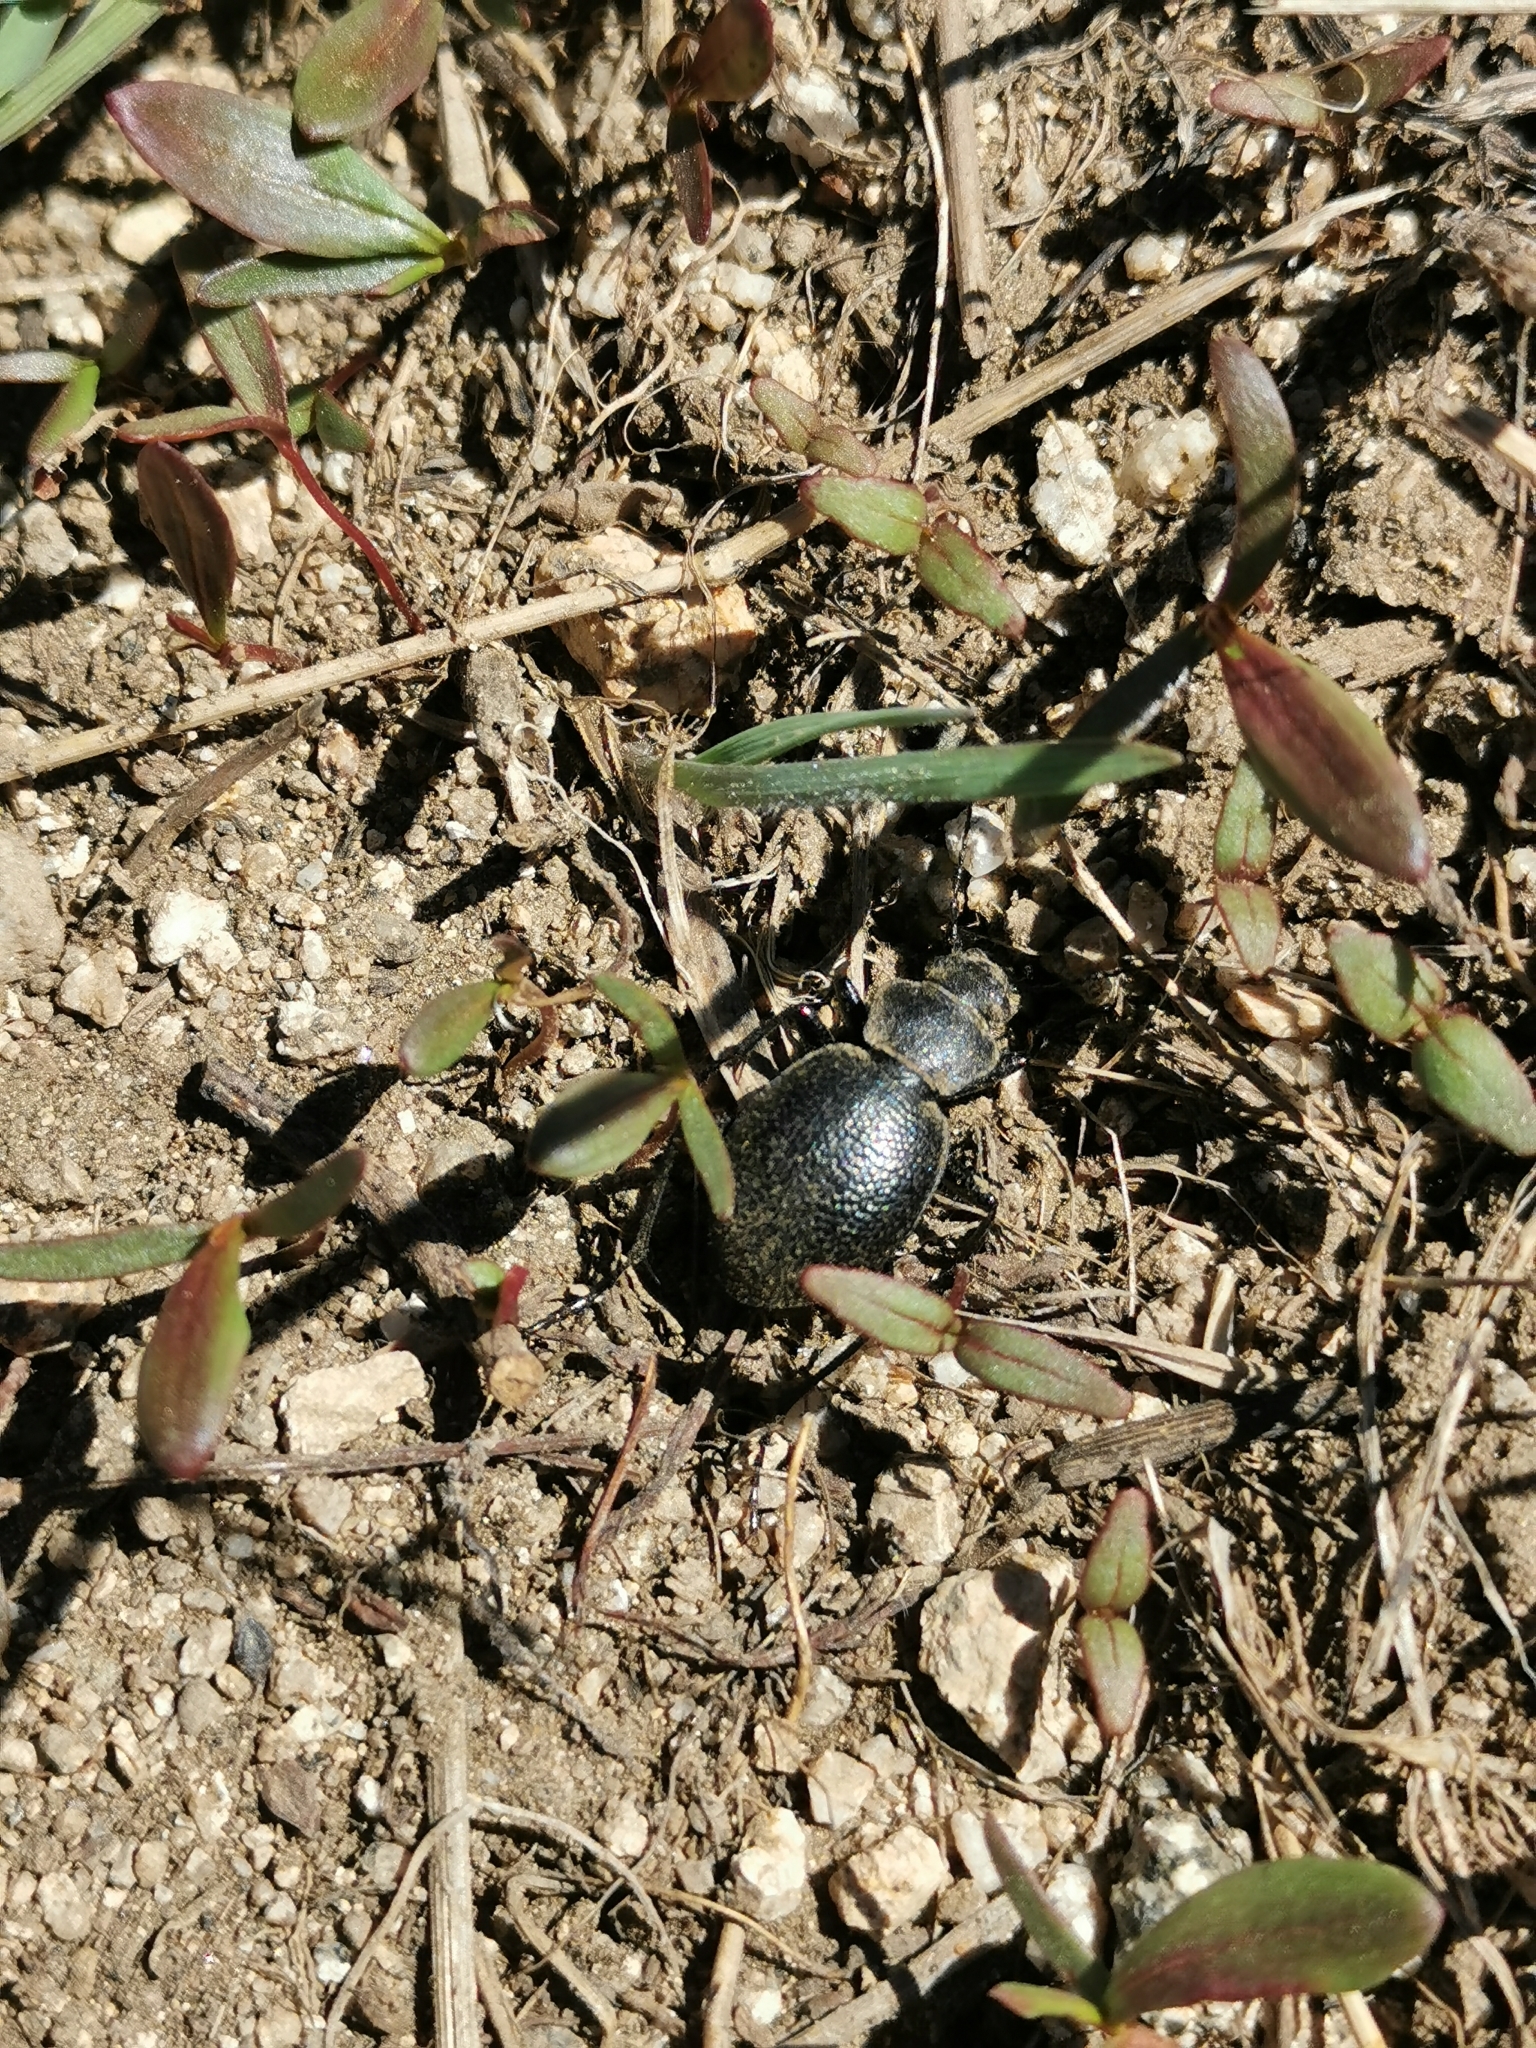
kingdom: Animalia
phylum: Arthropoda
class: Insecta
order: Coleoptera
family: Carabidae
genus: Calosoma
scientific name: Calosoma luxatum
